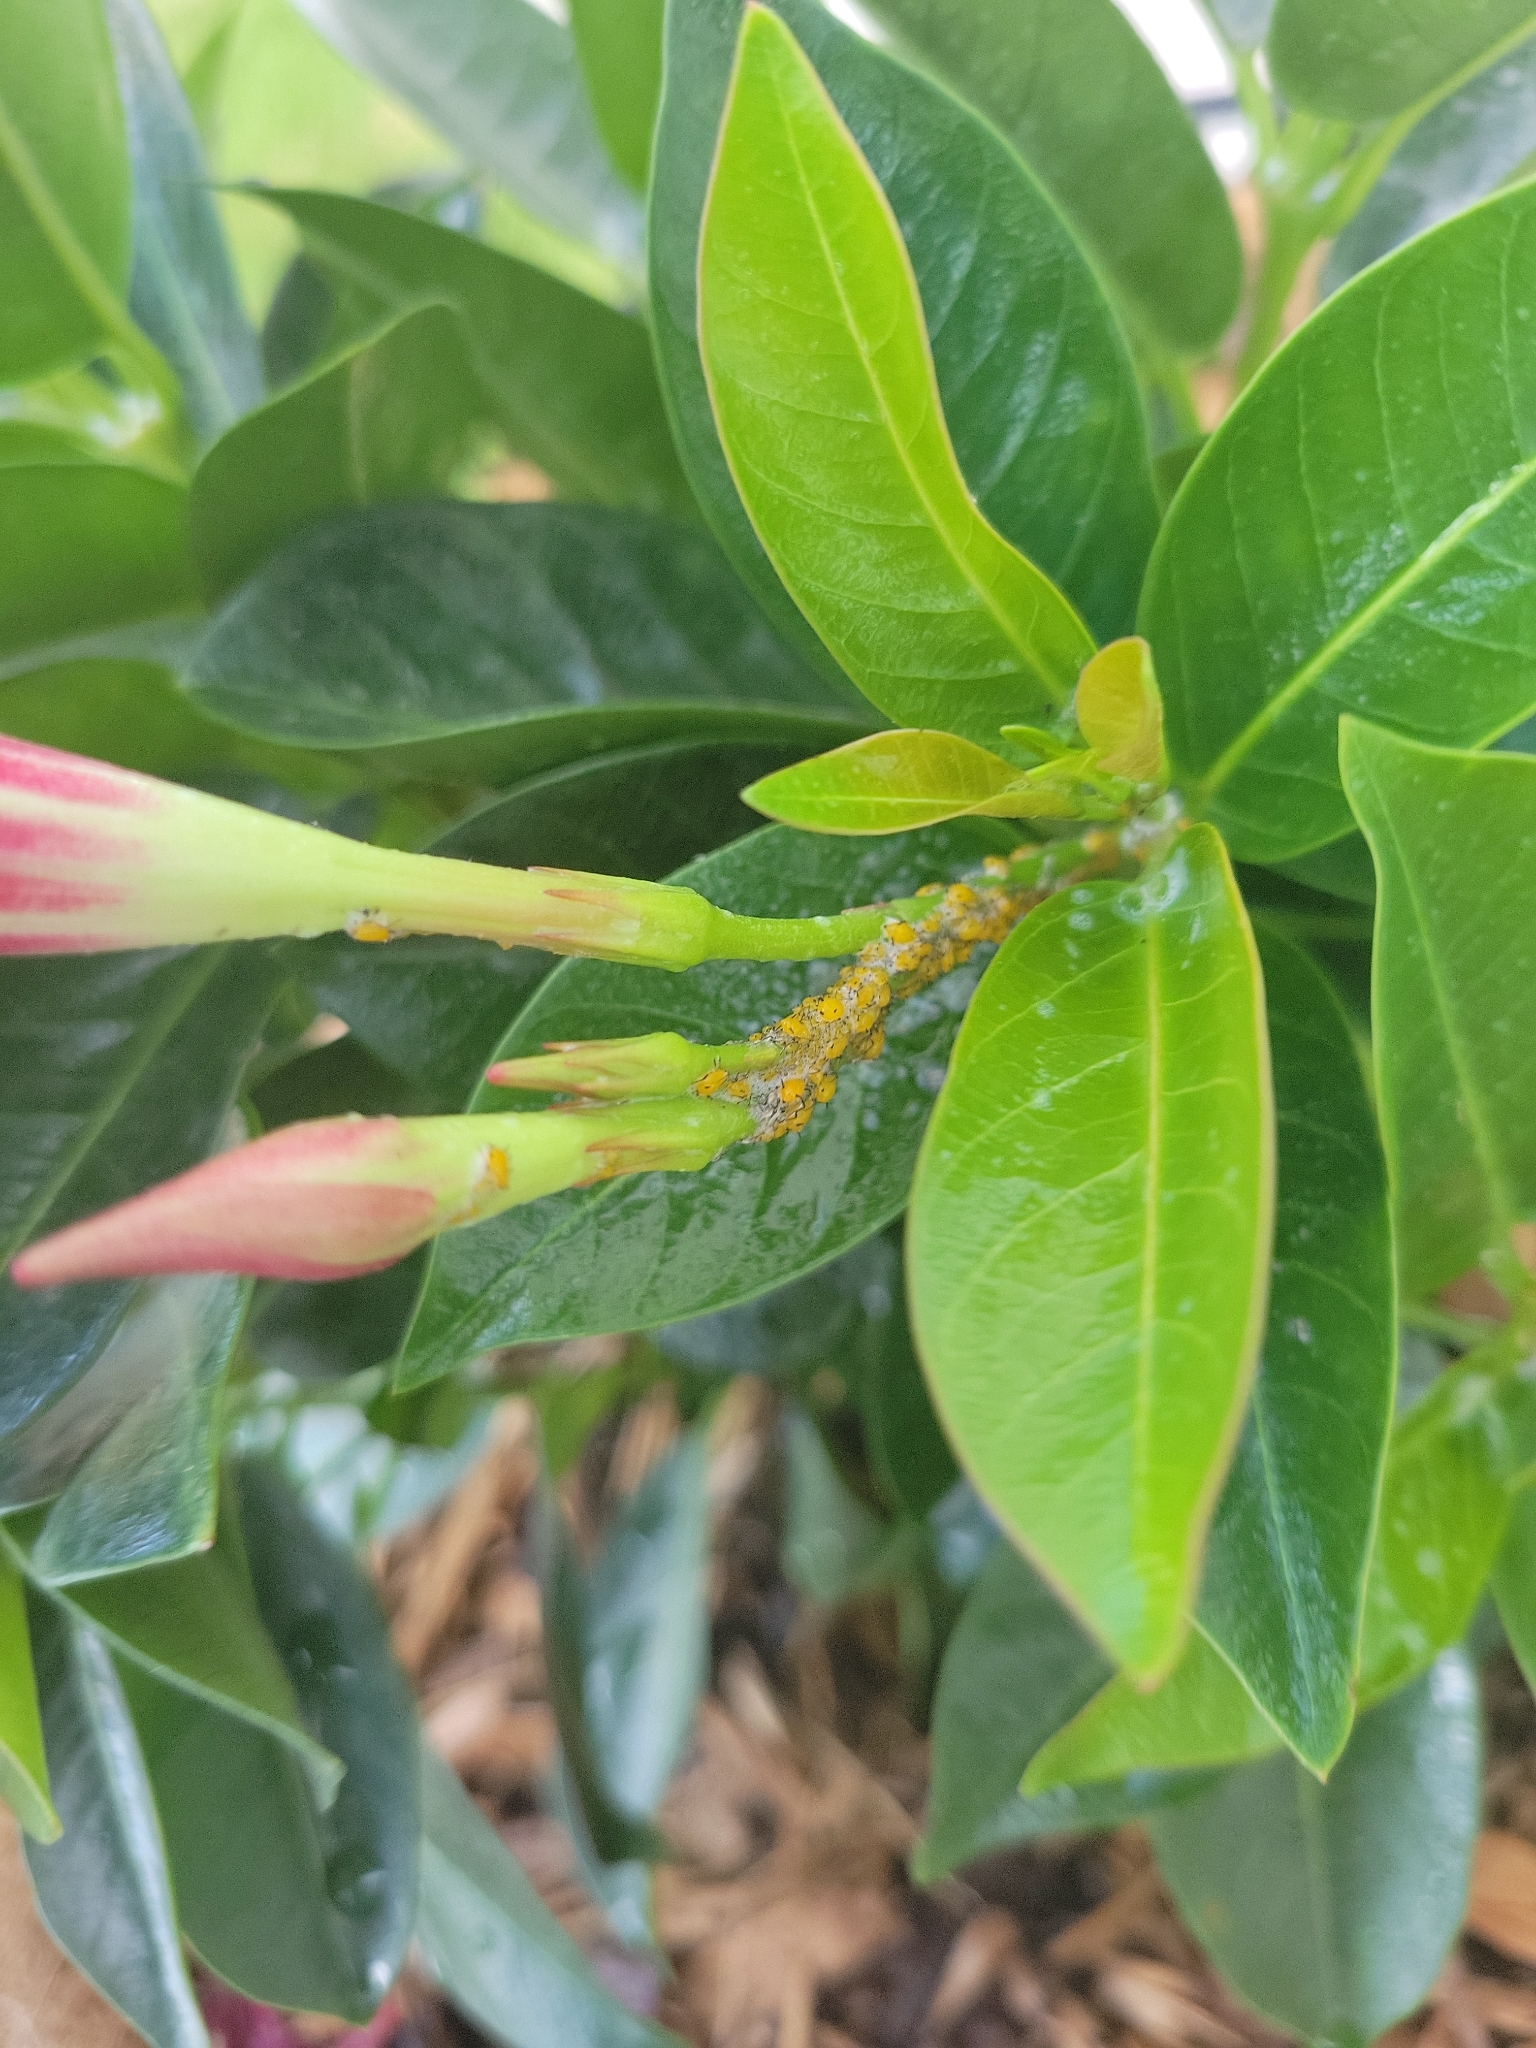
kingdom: Animalia
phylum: Arthropoda
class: Insecta
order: Hemiptera
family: Aphididae
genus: Aphis
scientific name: Aphis nerii
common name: Oleander aphid
